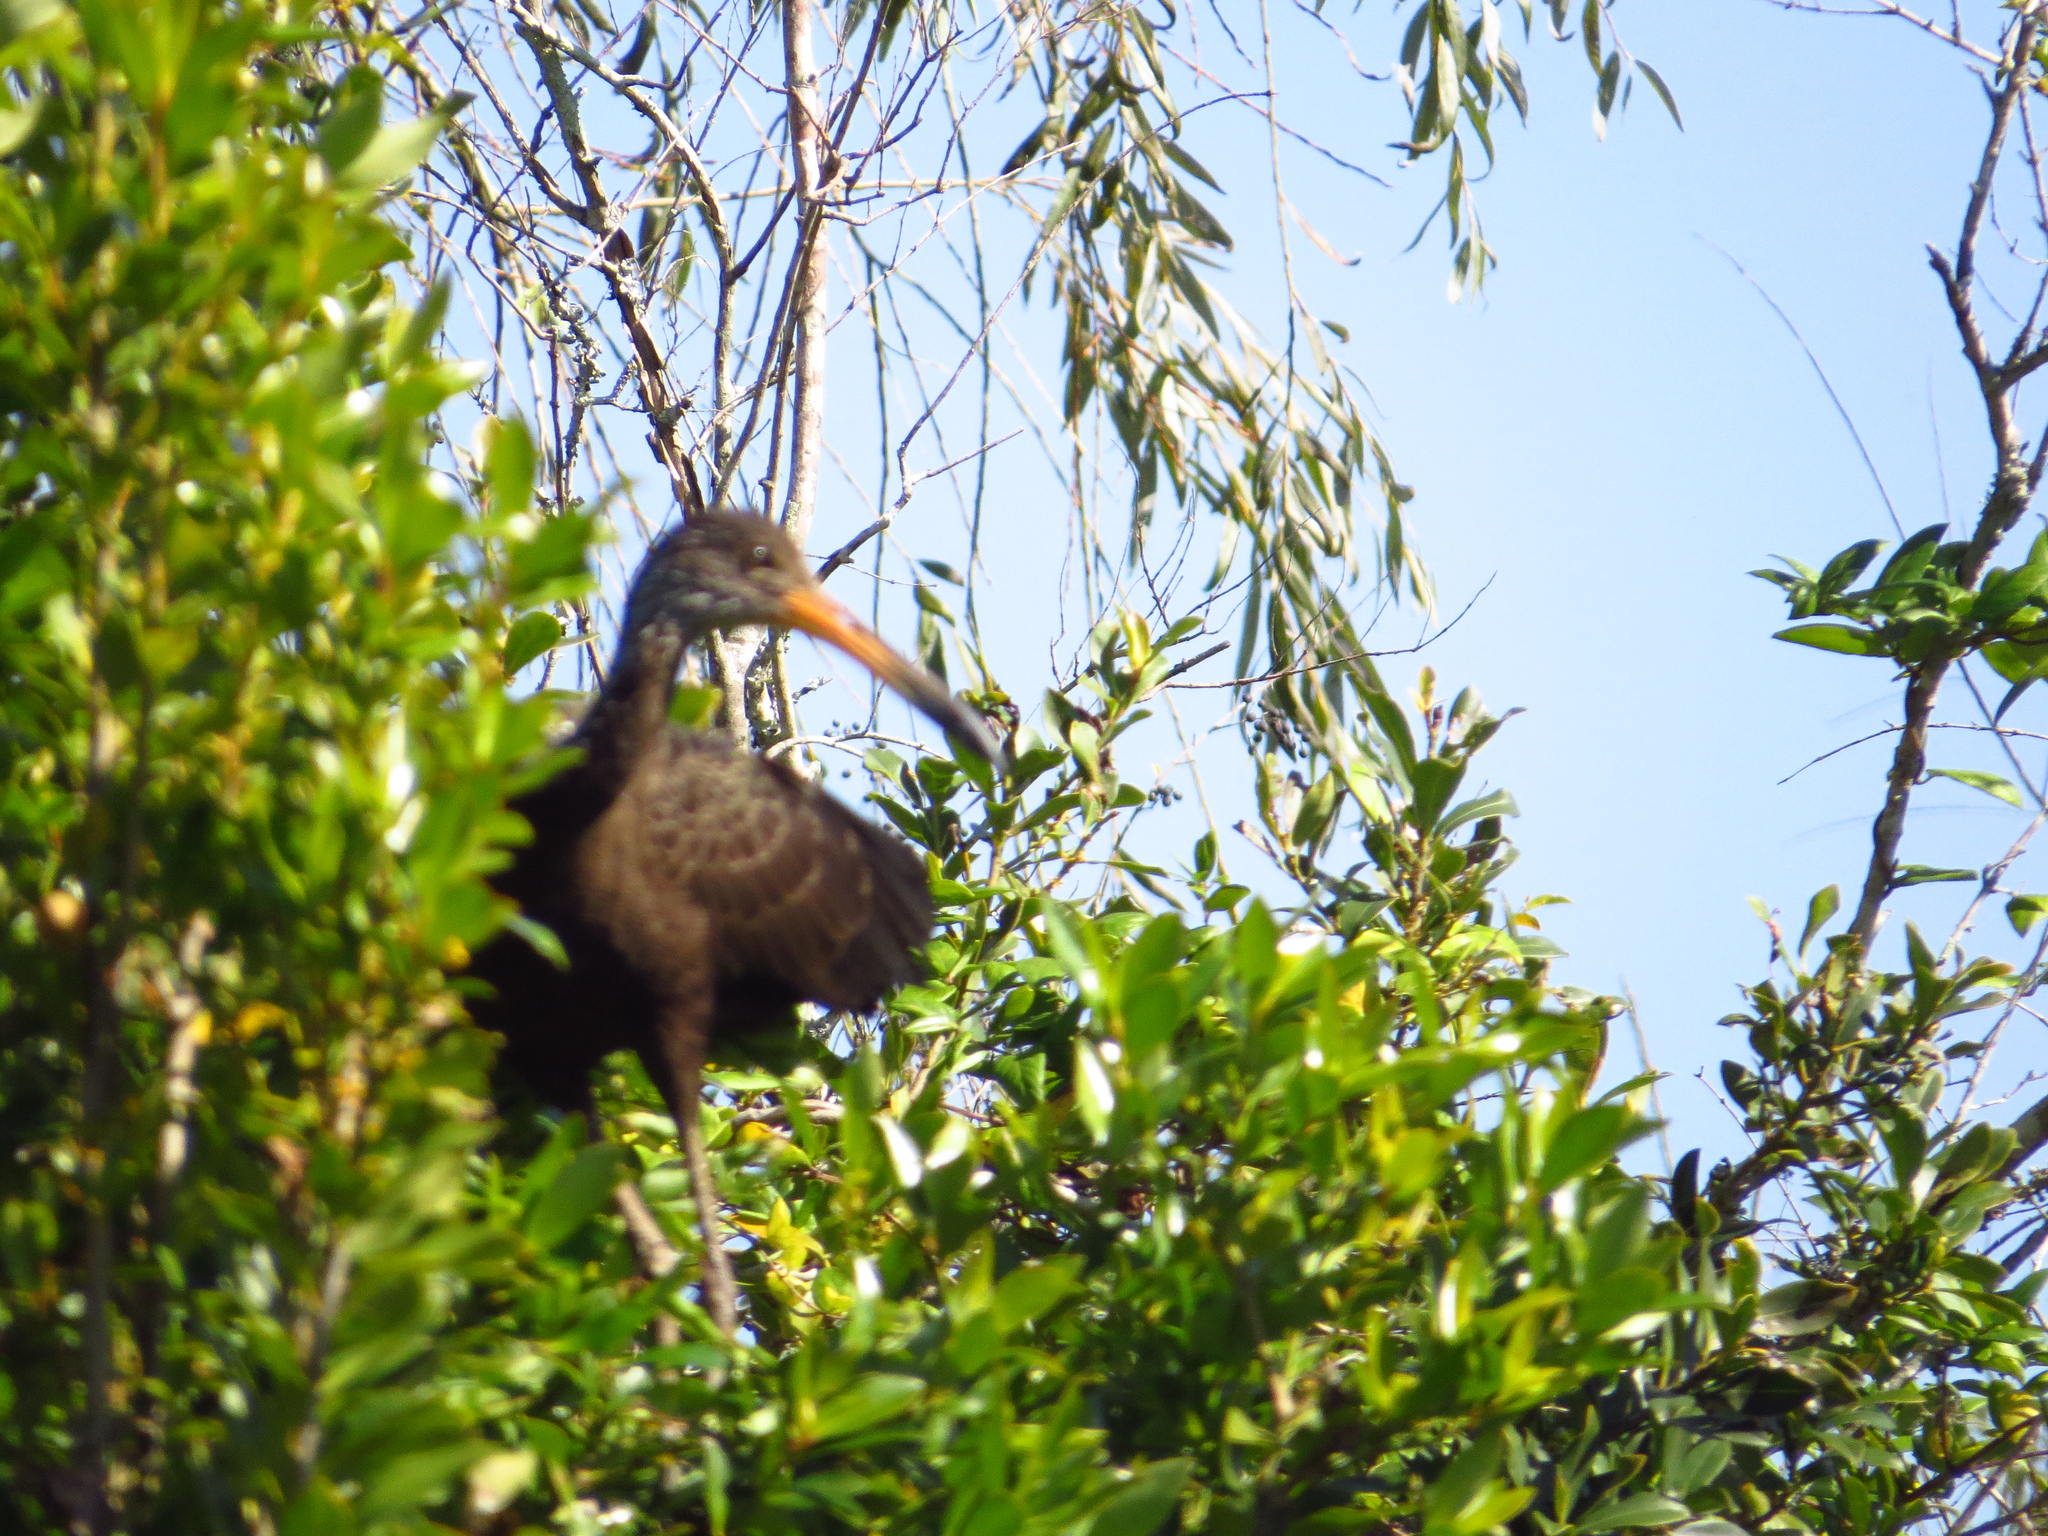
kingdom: Animalia
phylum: Chordata
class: Aves
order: Gruiformes
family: Aramidae
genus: Aramus
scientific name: Aramus guarauna
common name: Limpkin
